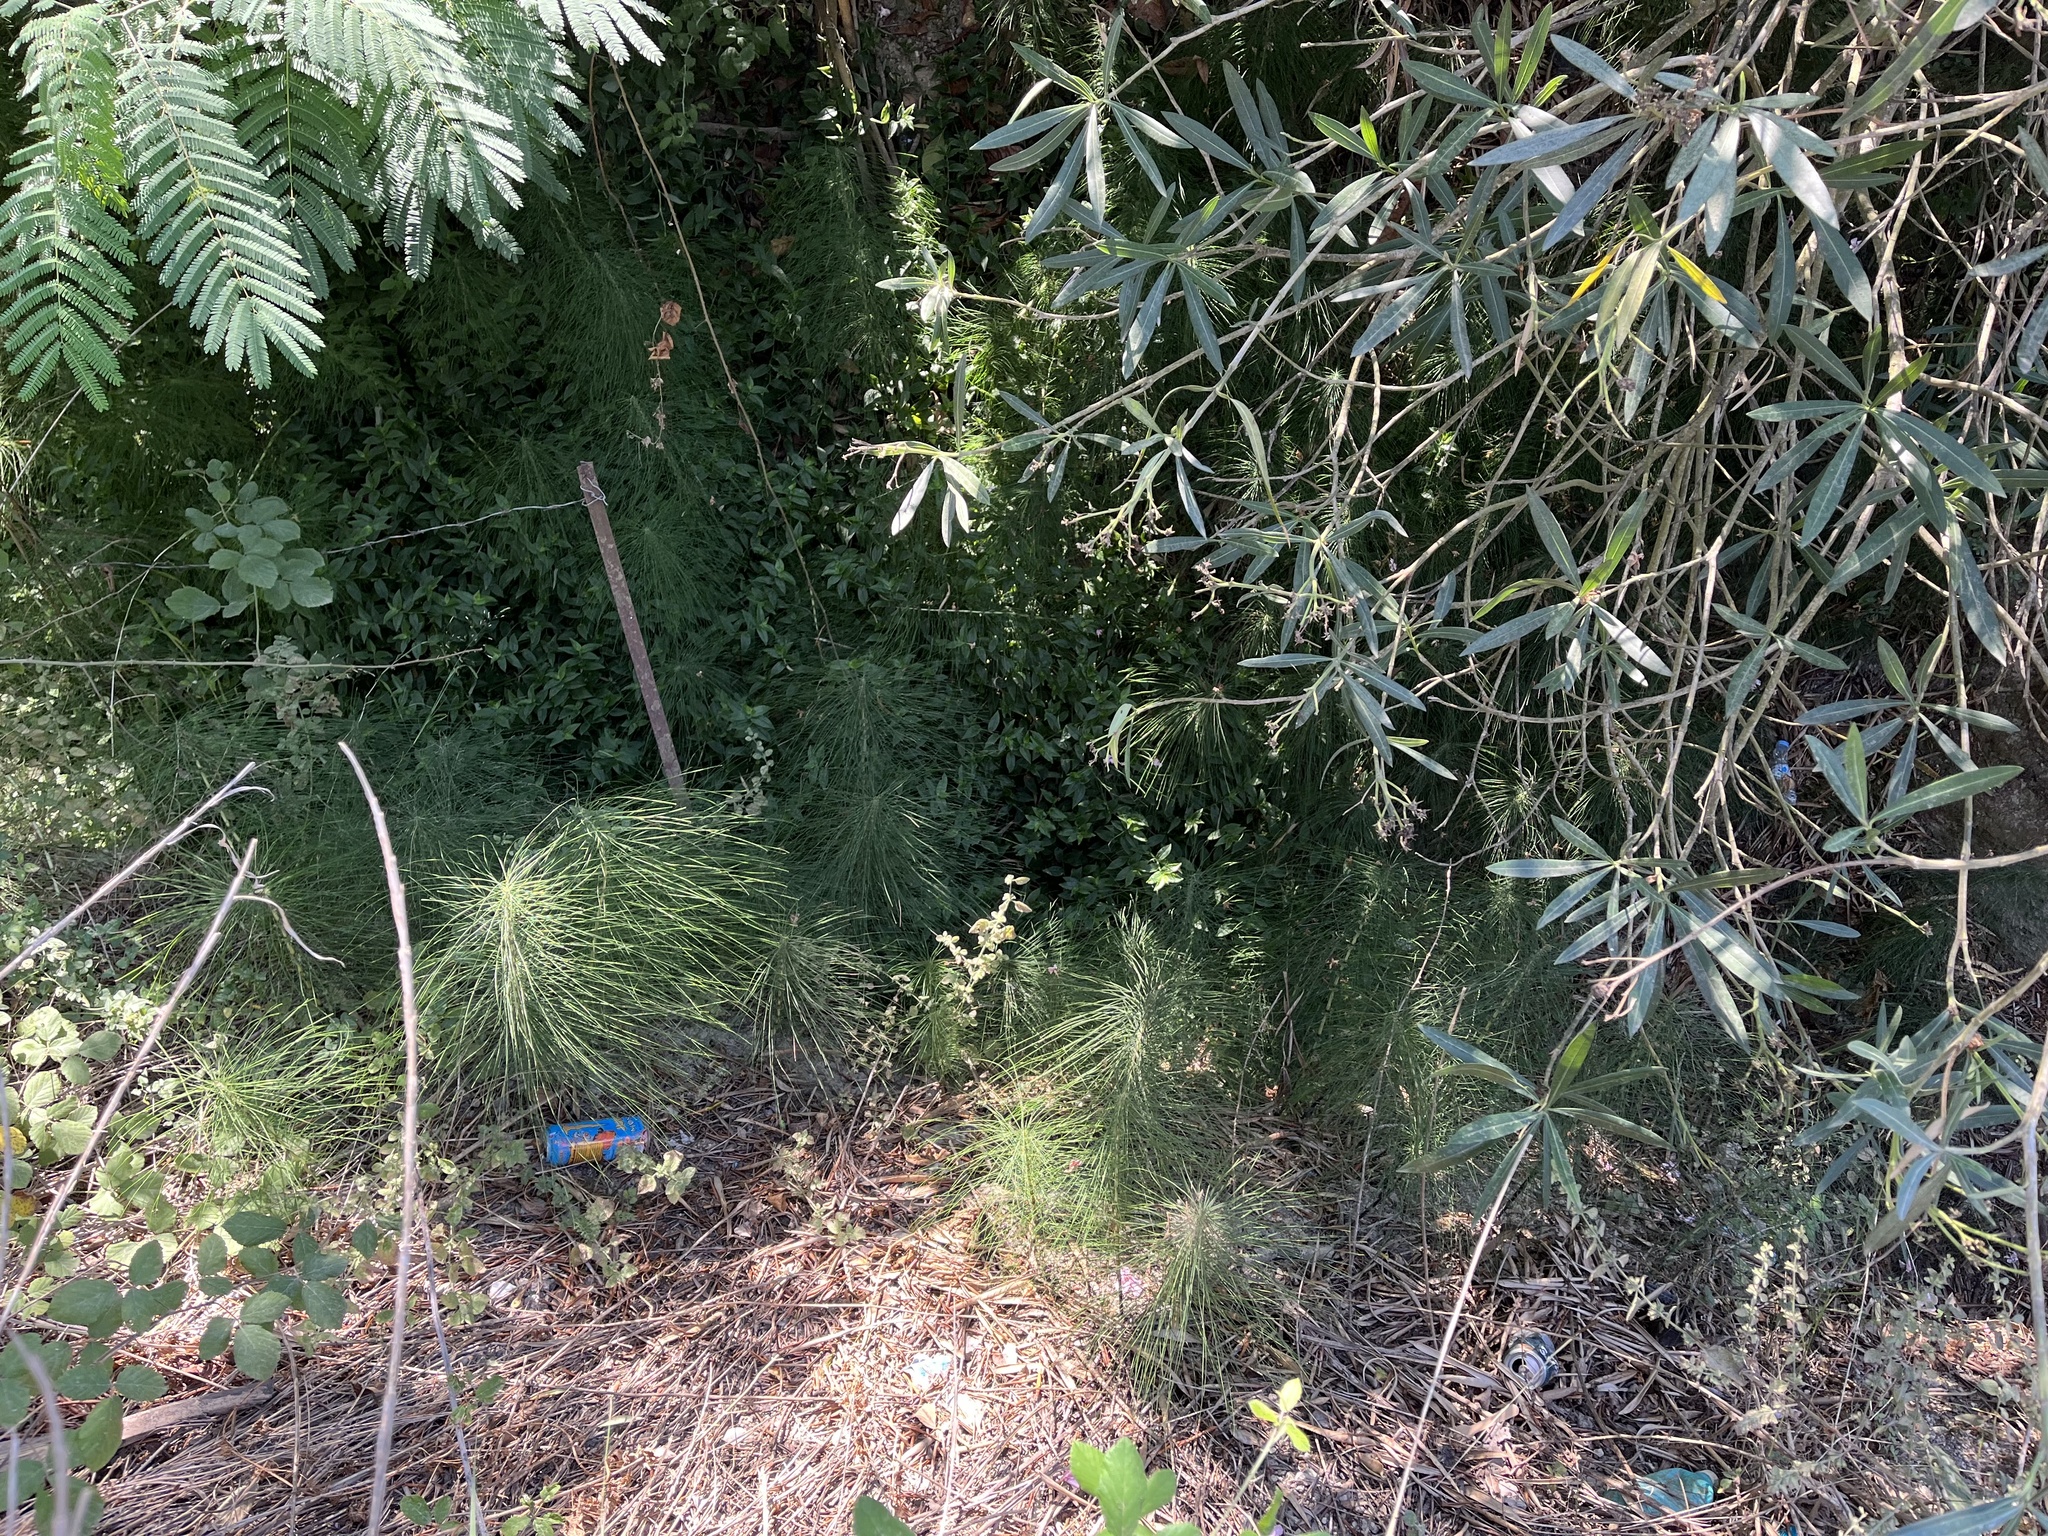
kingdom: Plantae
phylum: Tracheophyta
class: Polypodiopsida
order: Equisetales
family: Equisetaceae
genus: Equisetum
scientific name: Equisetum telmateia
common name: Great horsetail
